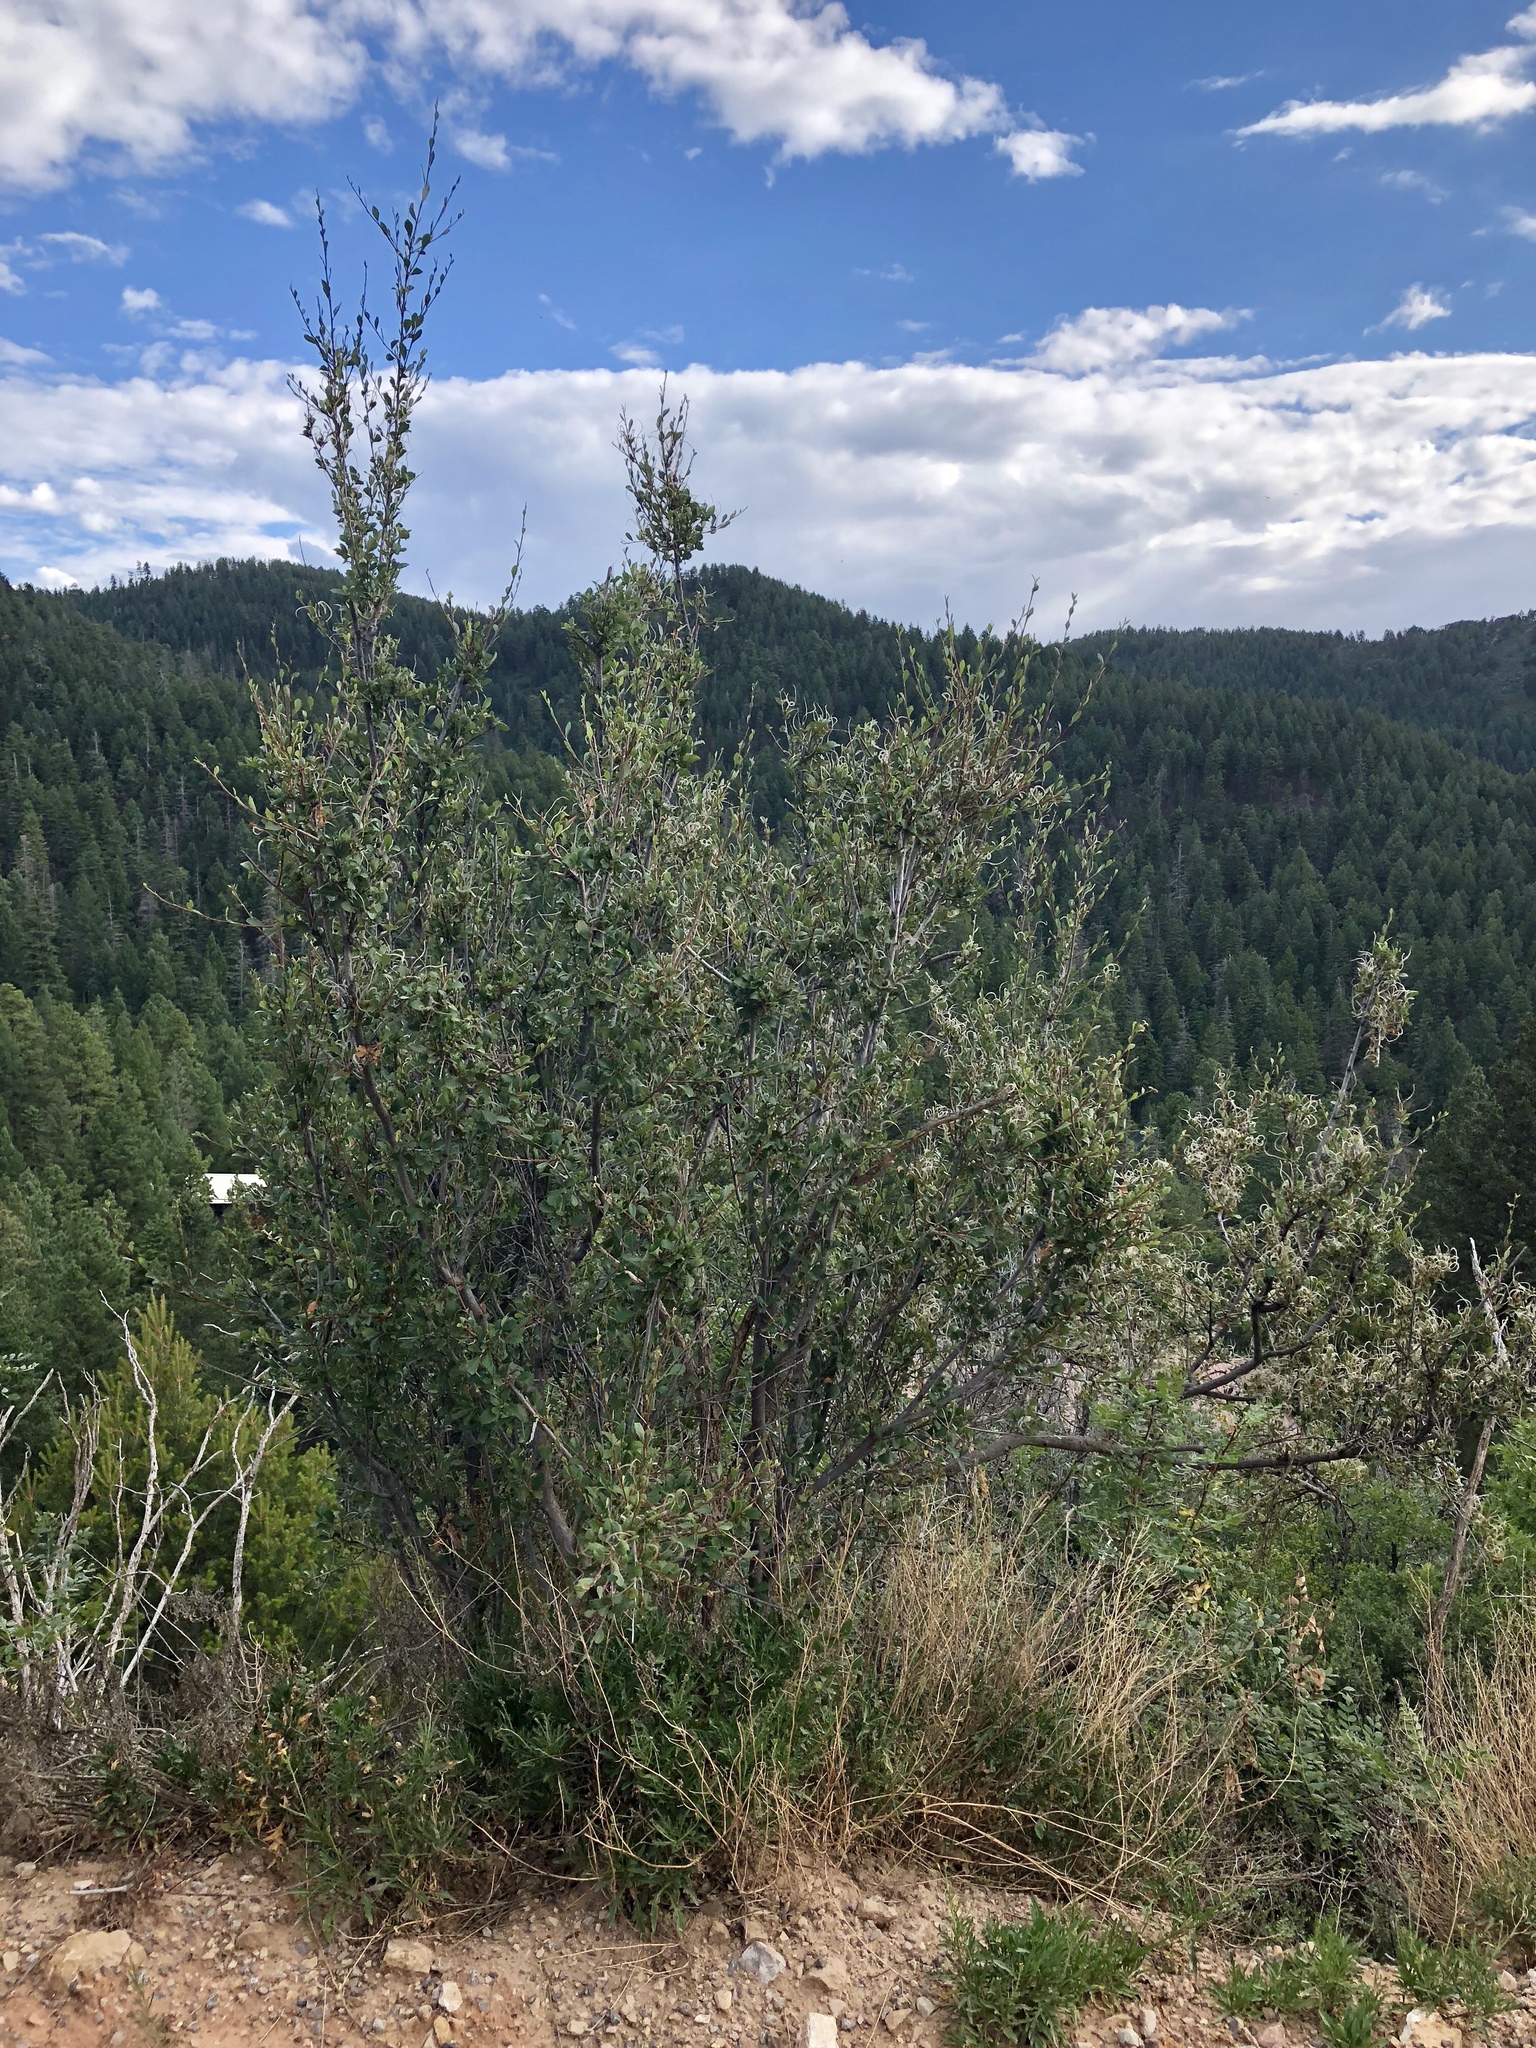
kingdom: Plantae
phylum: Tracheophyta
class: Magnoliopsida
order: Rosales
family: Rosaceae
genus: Cercocarpus
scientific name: Cercocarpus breviflorus
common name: Wright's mountain-mahogany
